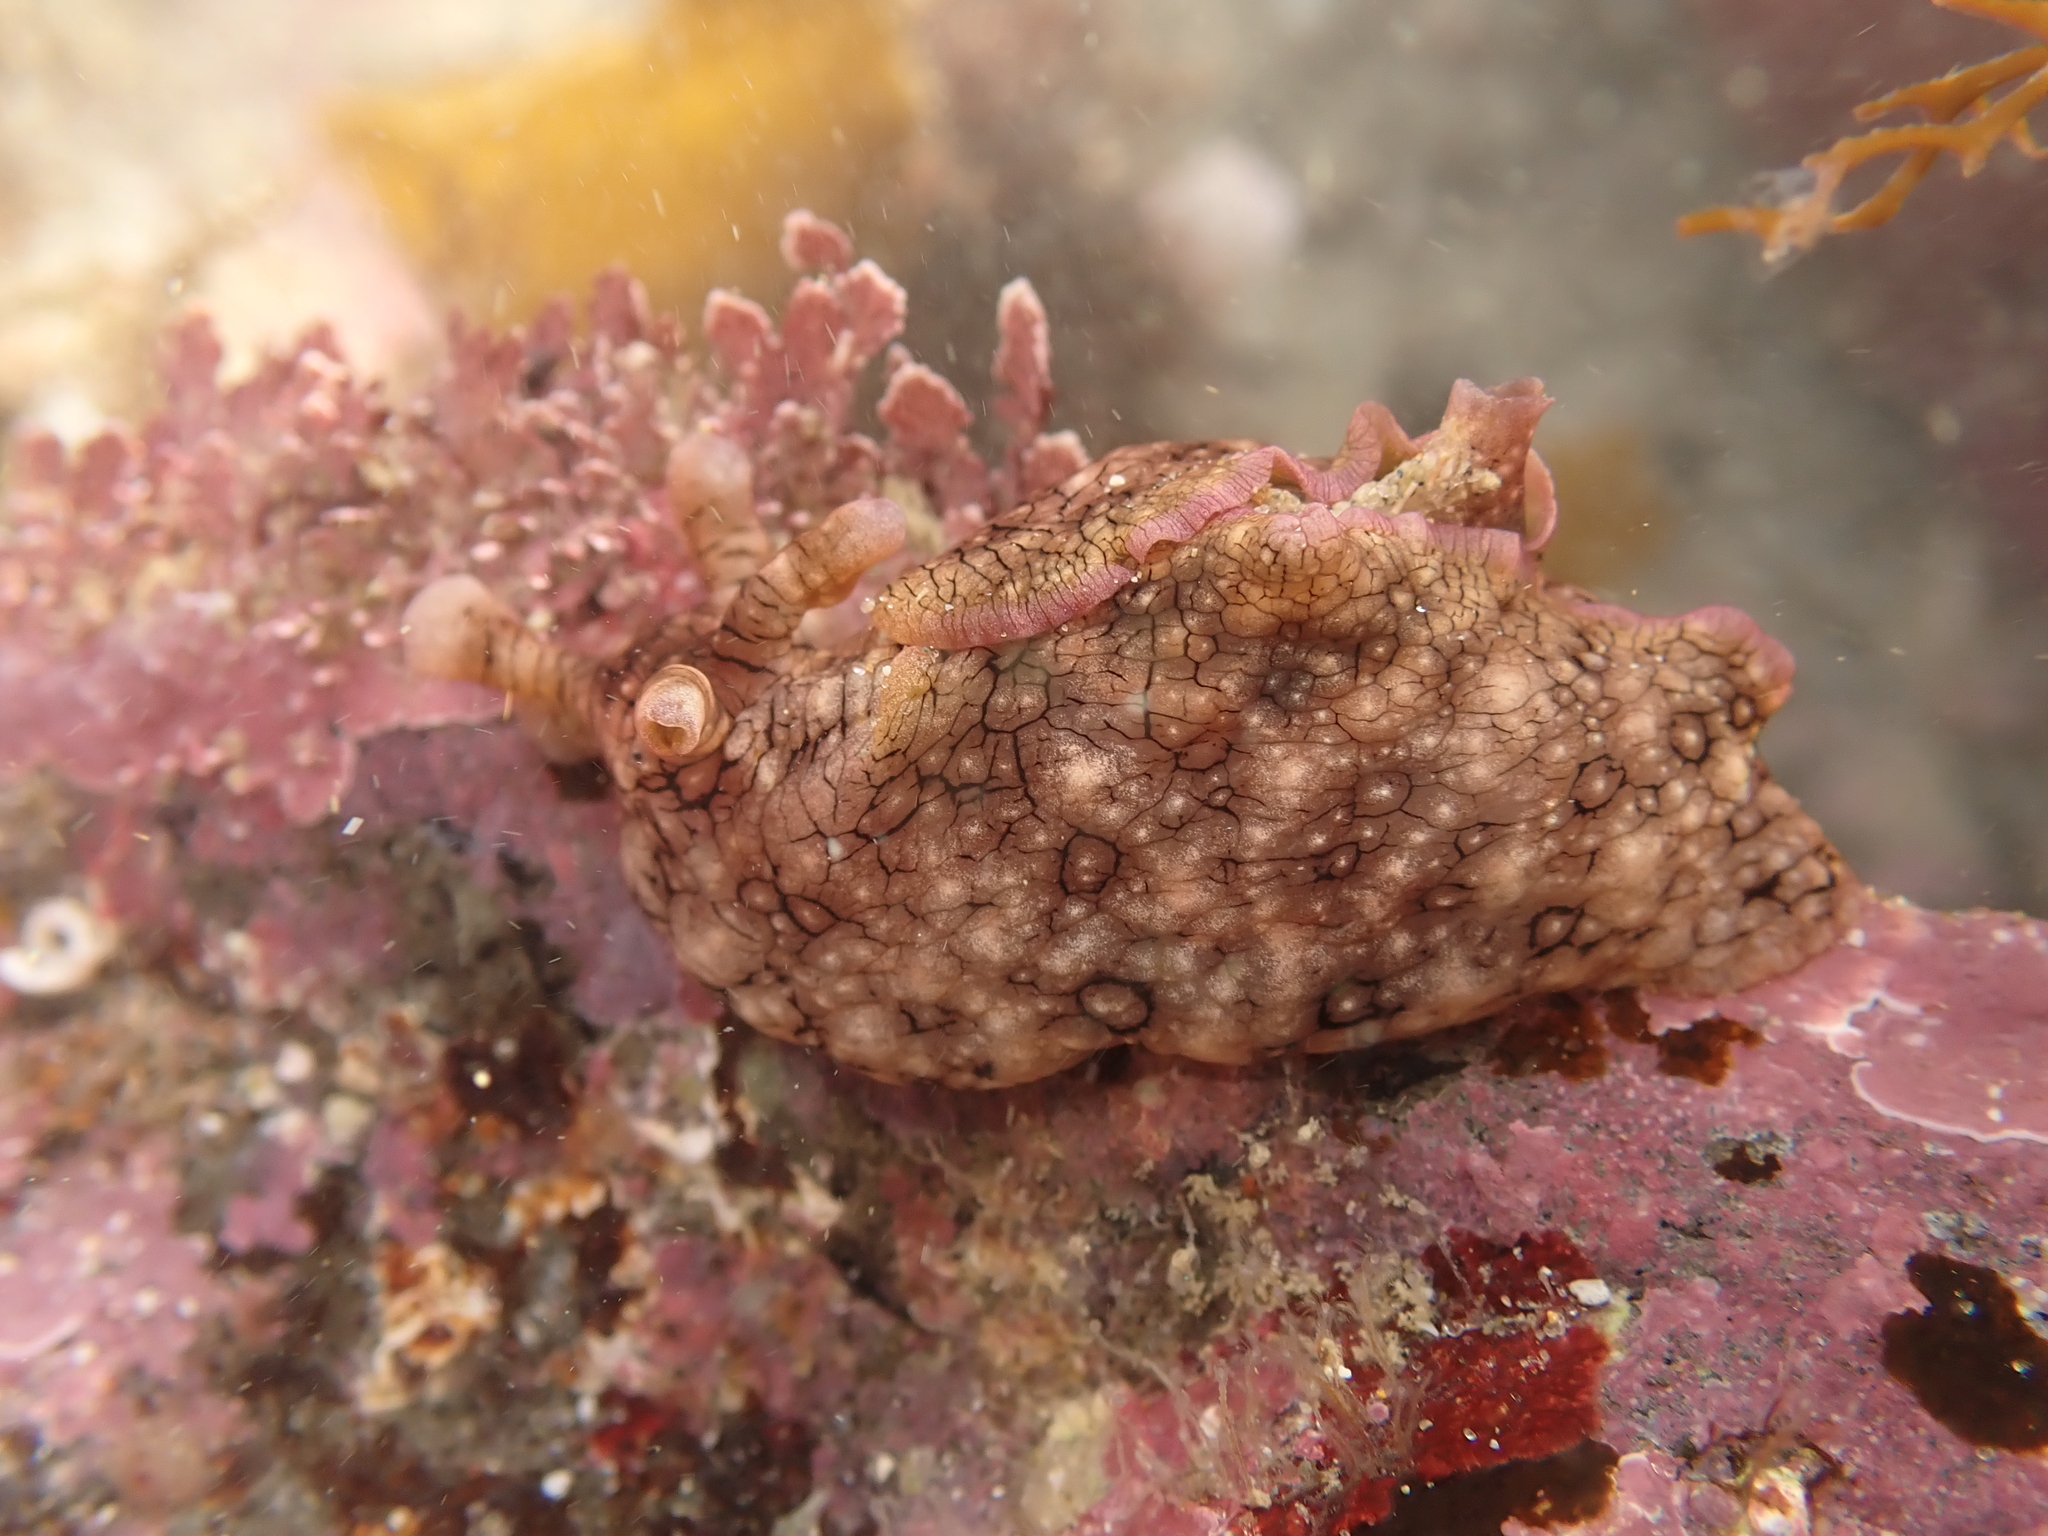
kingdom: Animalia
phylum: Mollusca
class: Gastropoda
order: Aplysiida
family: Aplysiidae
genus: Aplysia
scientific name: Aplysia argus
